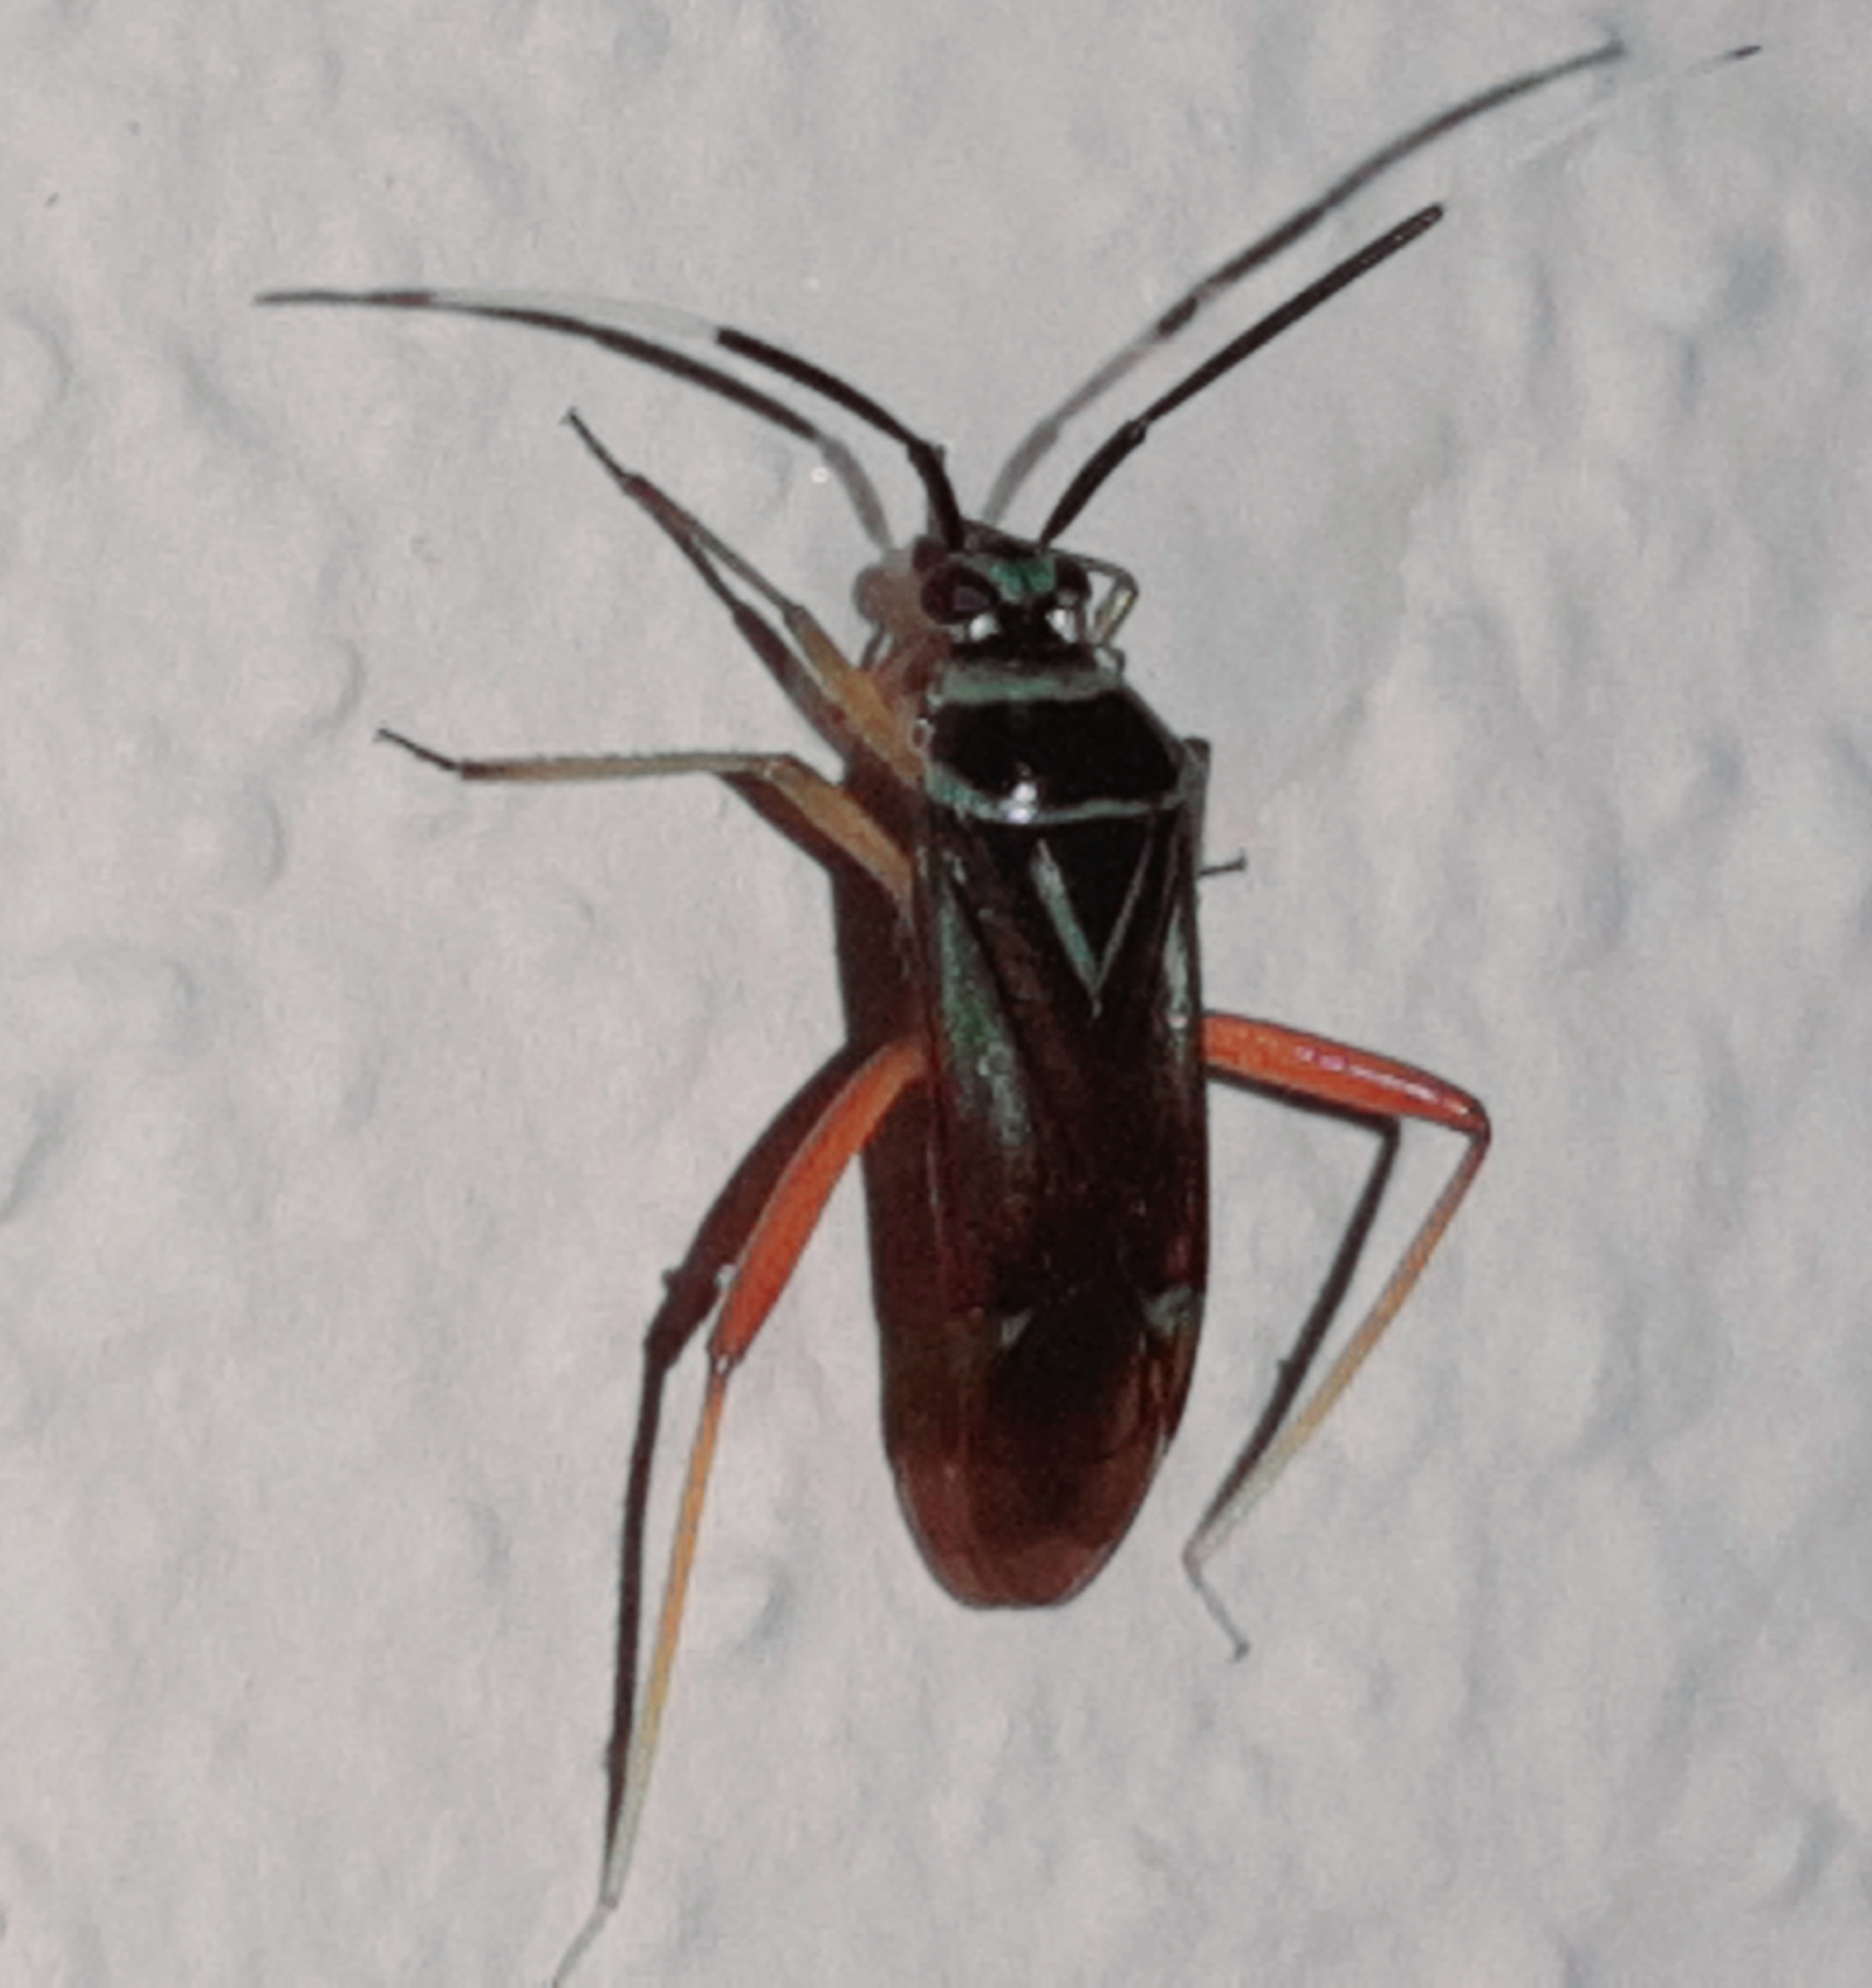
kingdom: Animalia
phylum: Arthropoda
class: Insecta
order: Hemiptera
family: Miridae
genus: Calondas
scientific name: Calondas fasciatus
